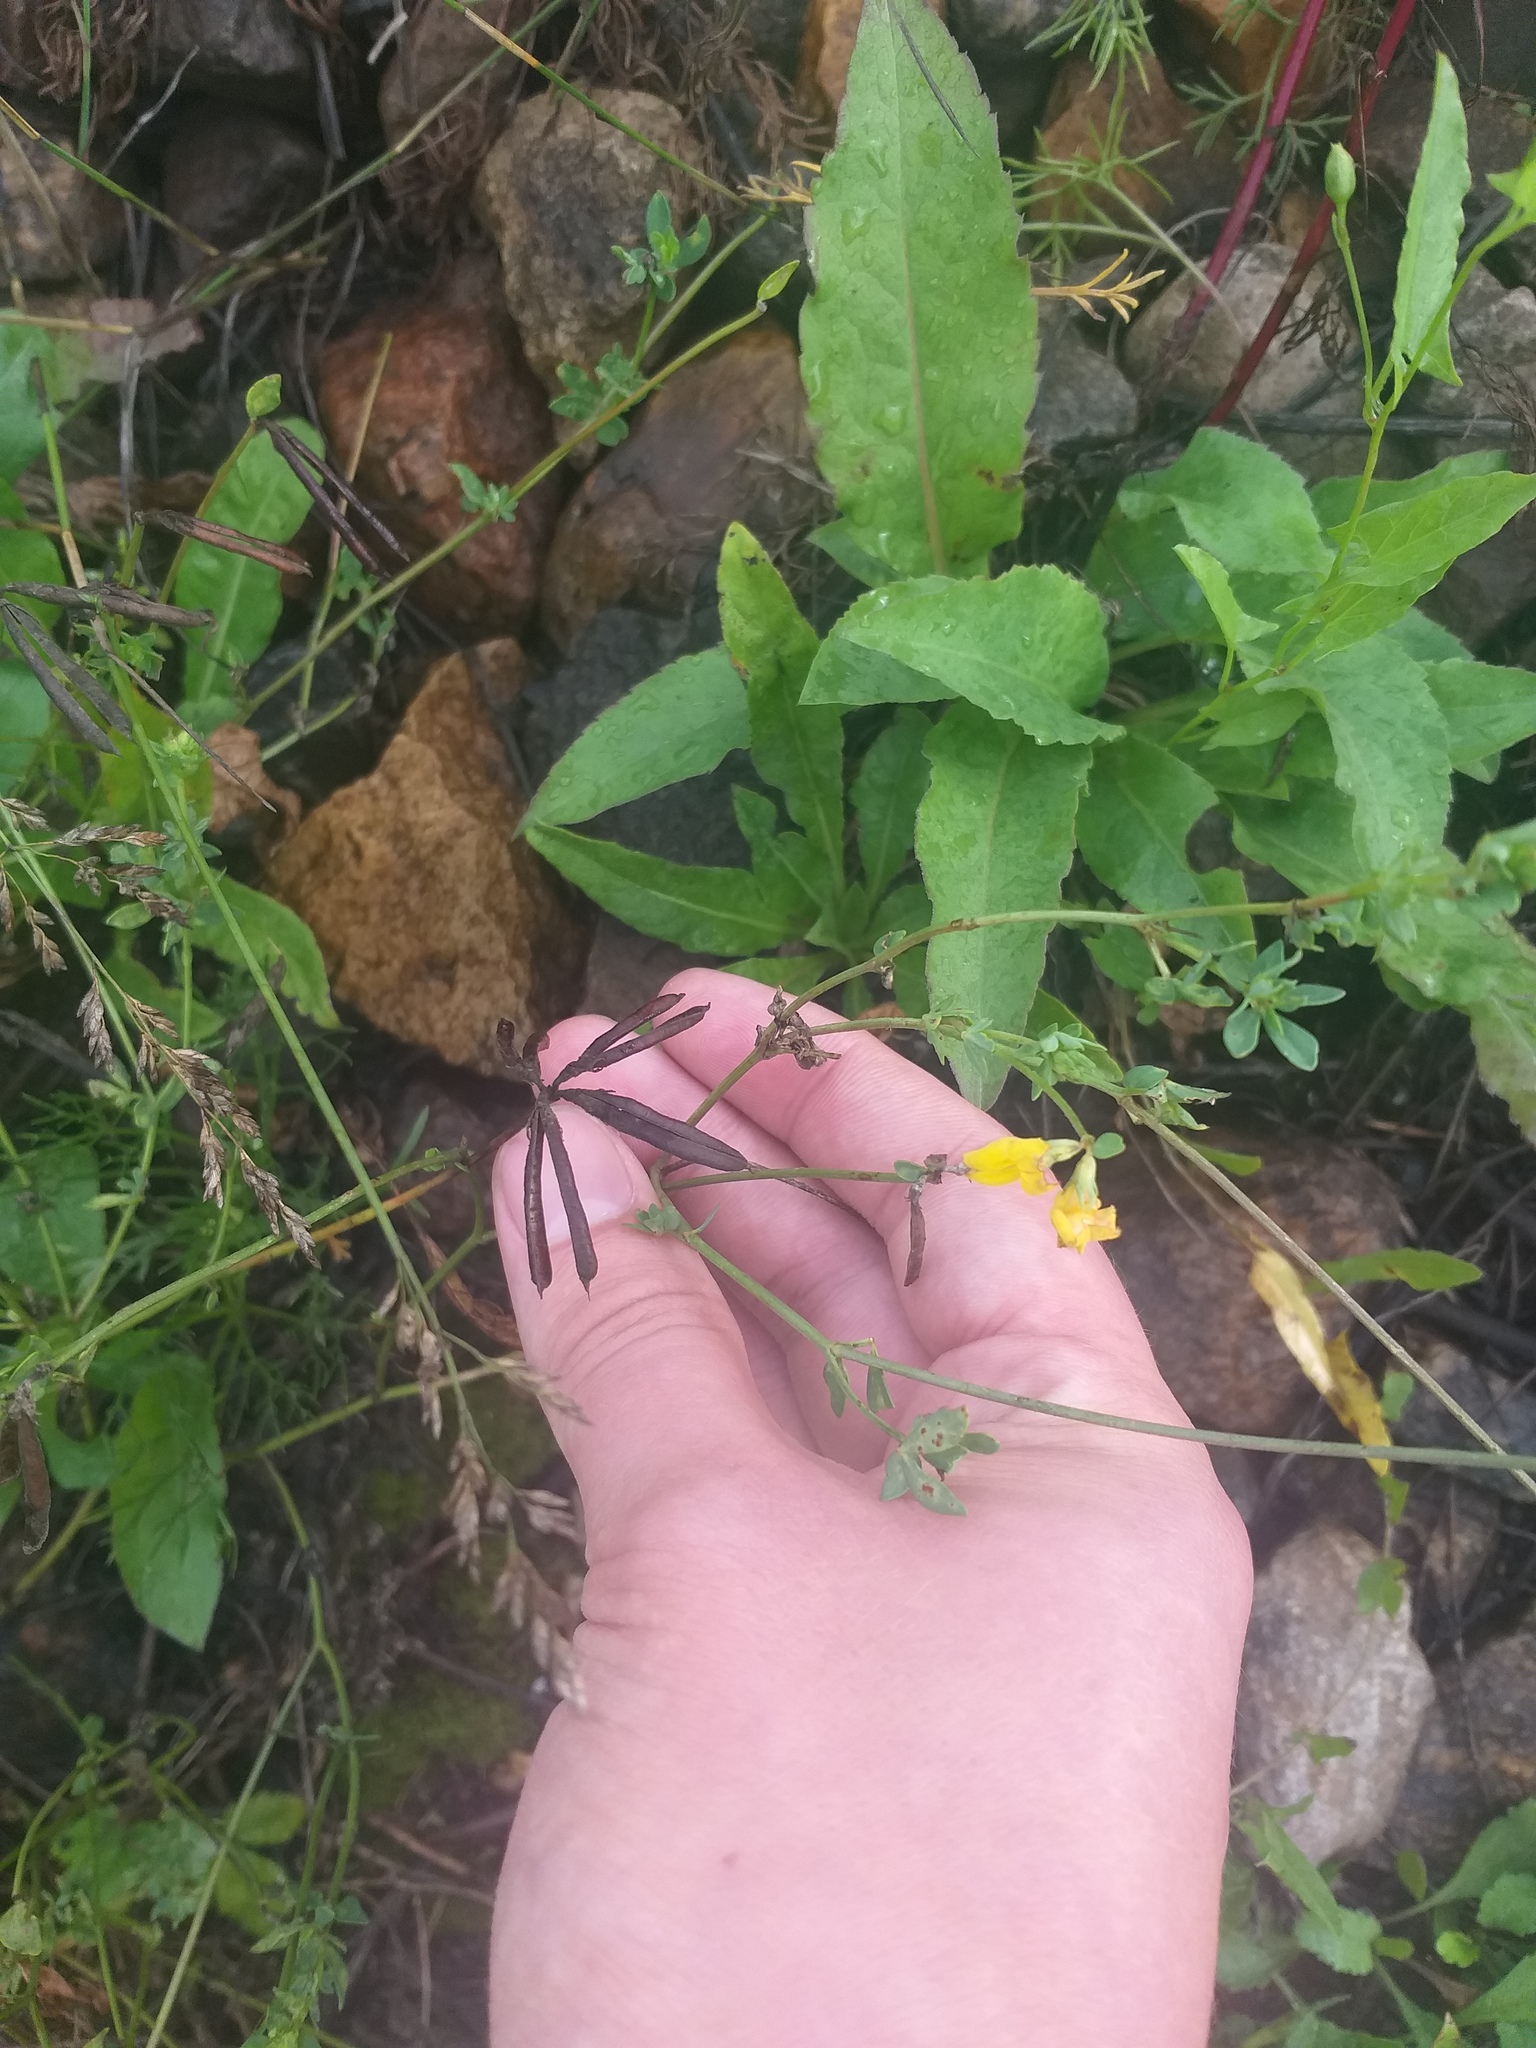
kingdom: Plantae
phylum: Tracheophyta
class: Magnoliopsida
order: Fabales
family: Fabaceae
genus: Lotus
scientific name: Lotus corniculatus
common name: Common bird's-foot-trefoil
